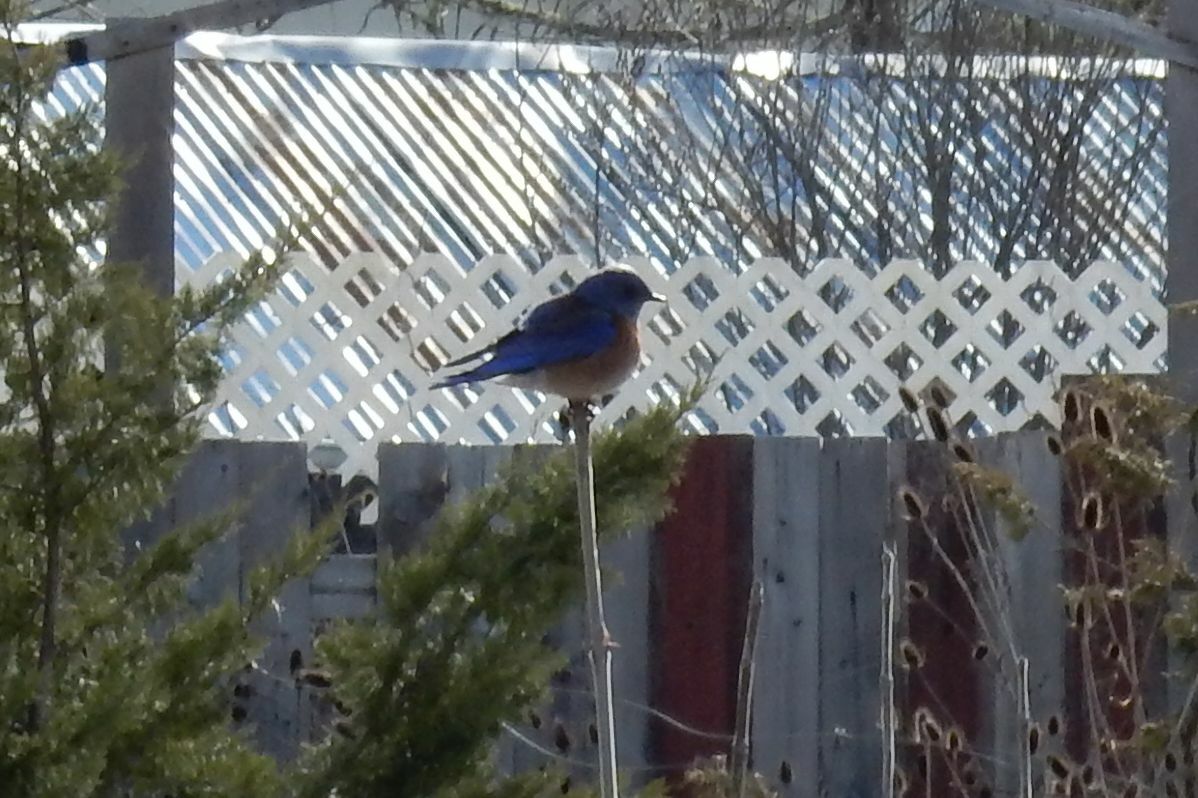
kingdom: Animalia
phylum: Chordata
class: Aves
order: Passeriformes
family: Turdidae
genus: Sialia
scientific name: Sialia mexicana
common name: Western bluebird
